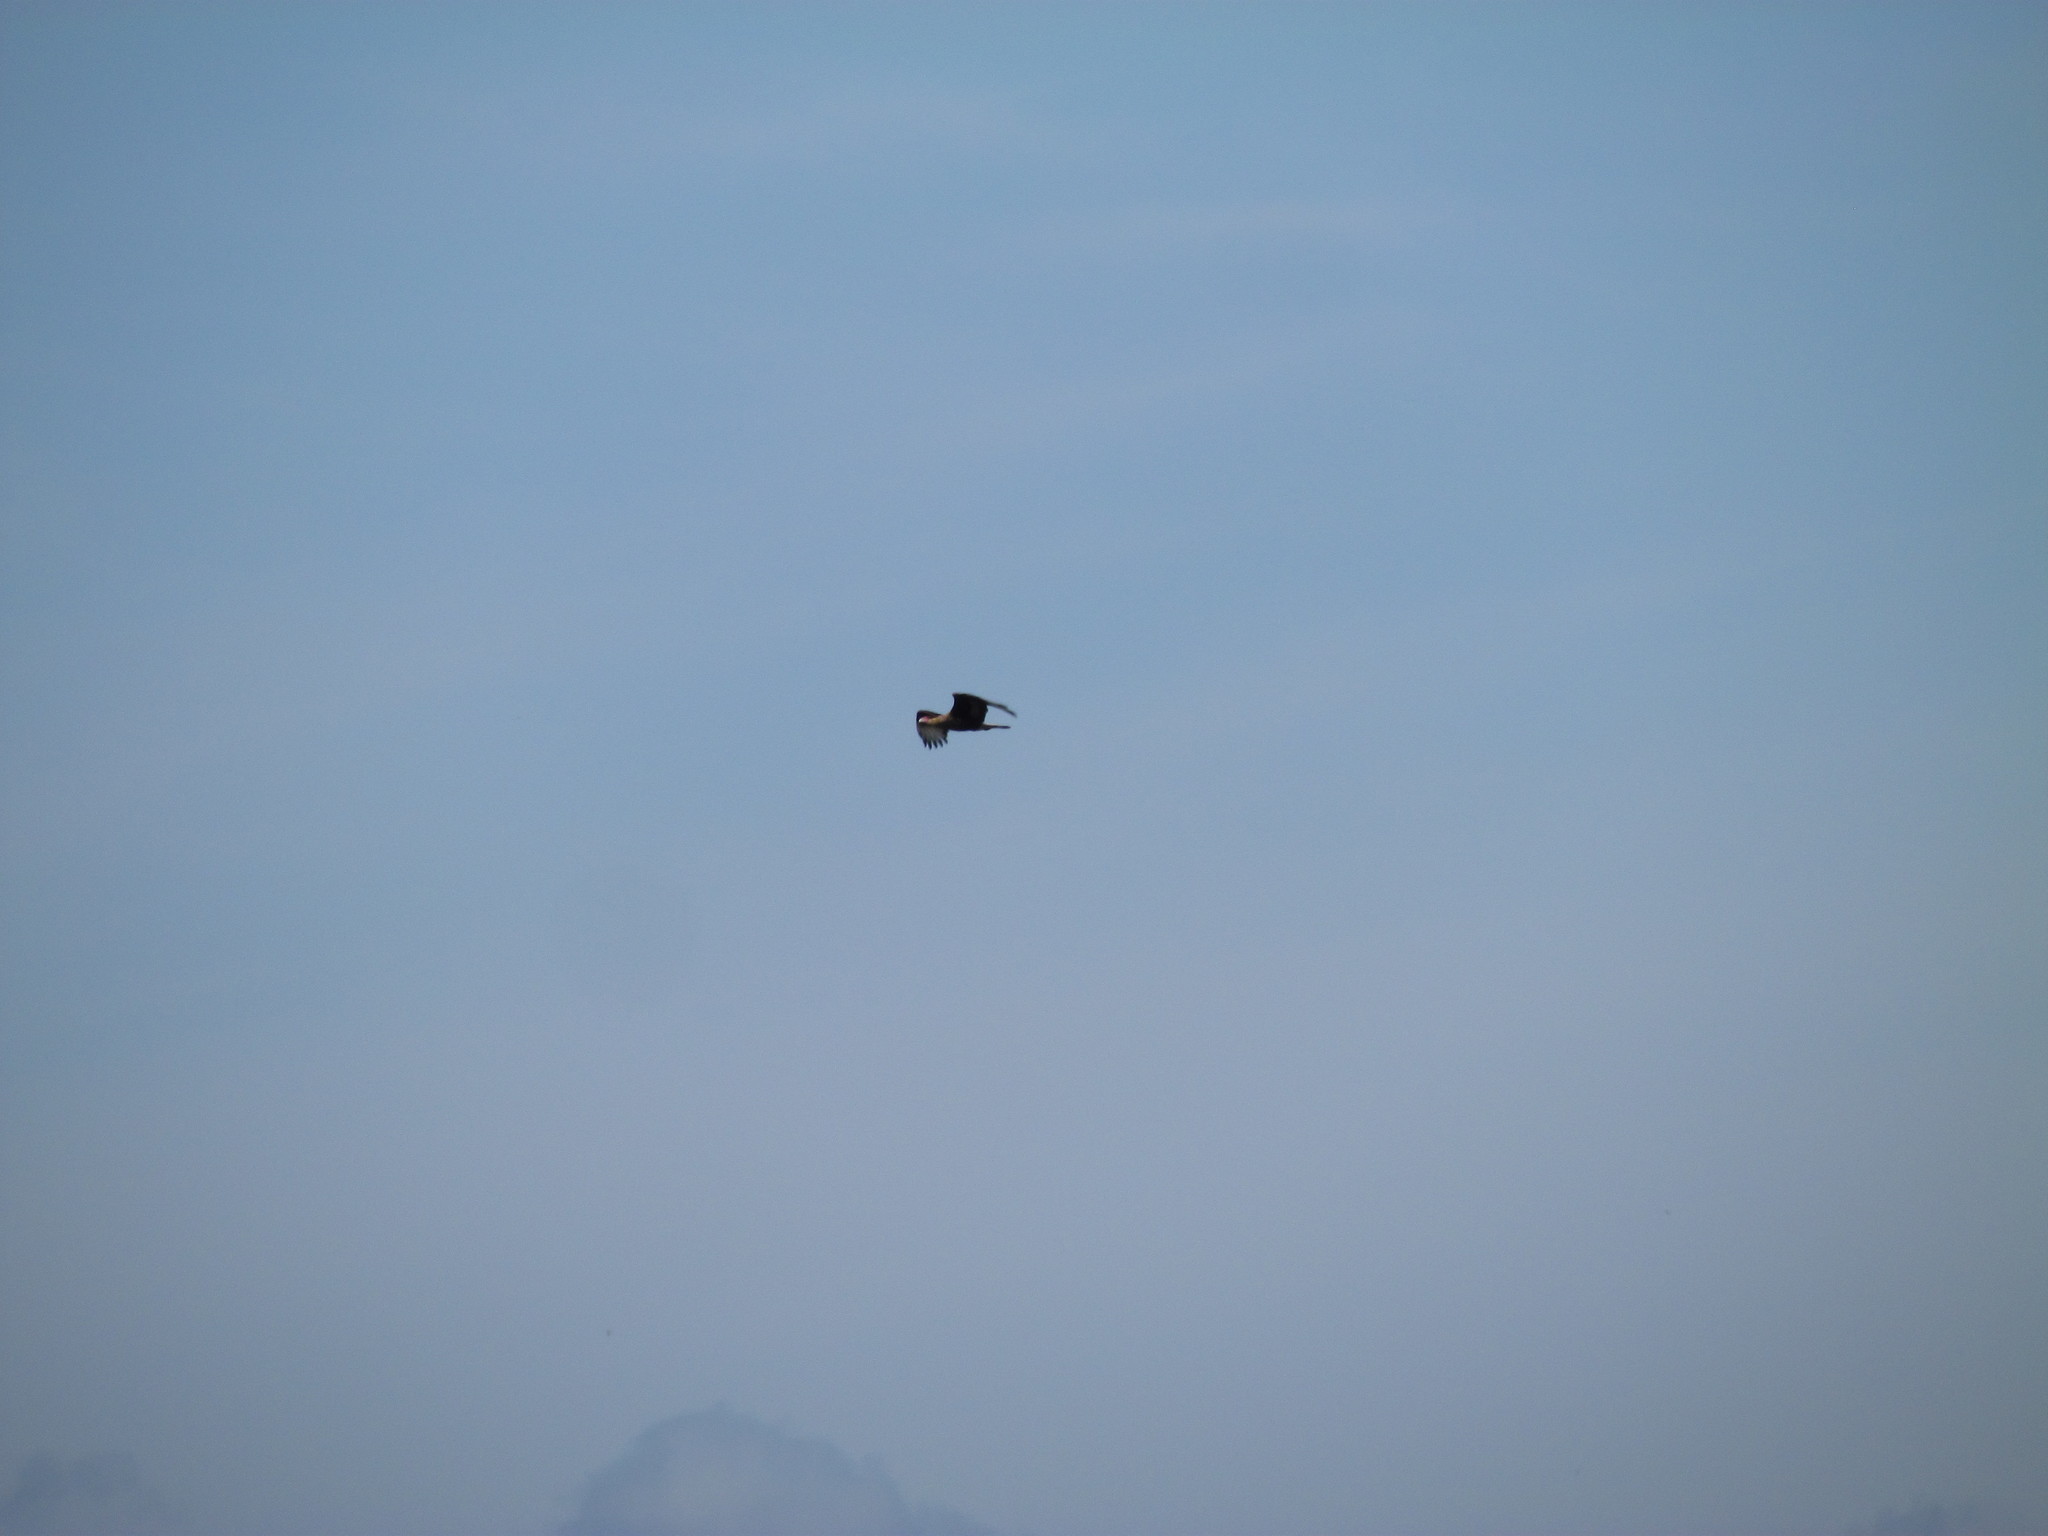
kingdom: Animalia
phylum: Chordata
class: Aves
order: Falconiformes
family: Falconidae
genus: Caracara
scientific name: Caracara plancus
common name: Southern caracara
